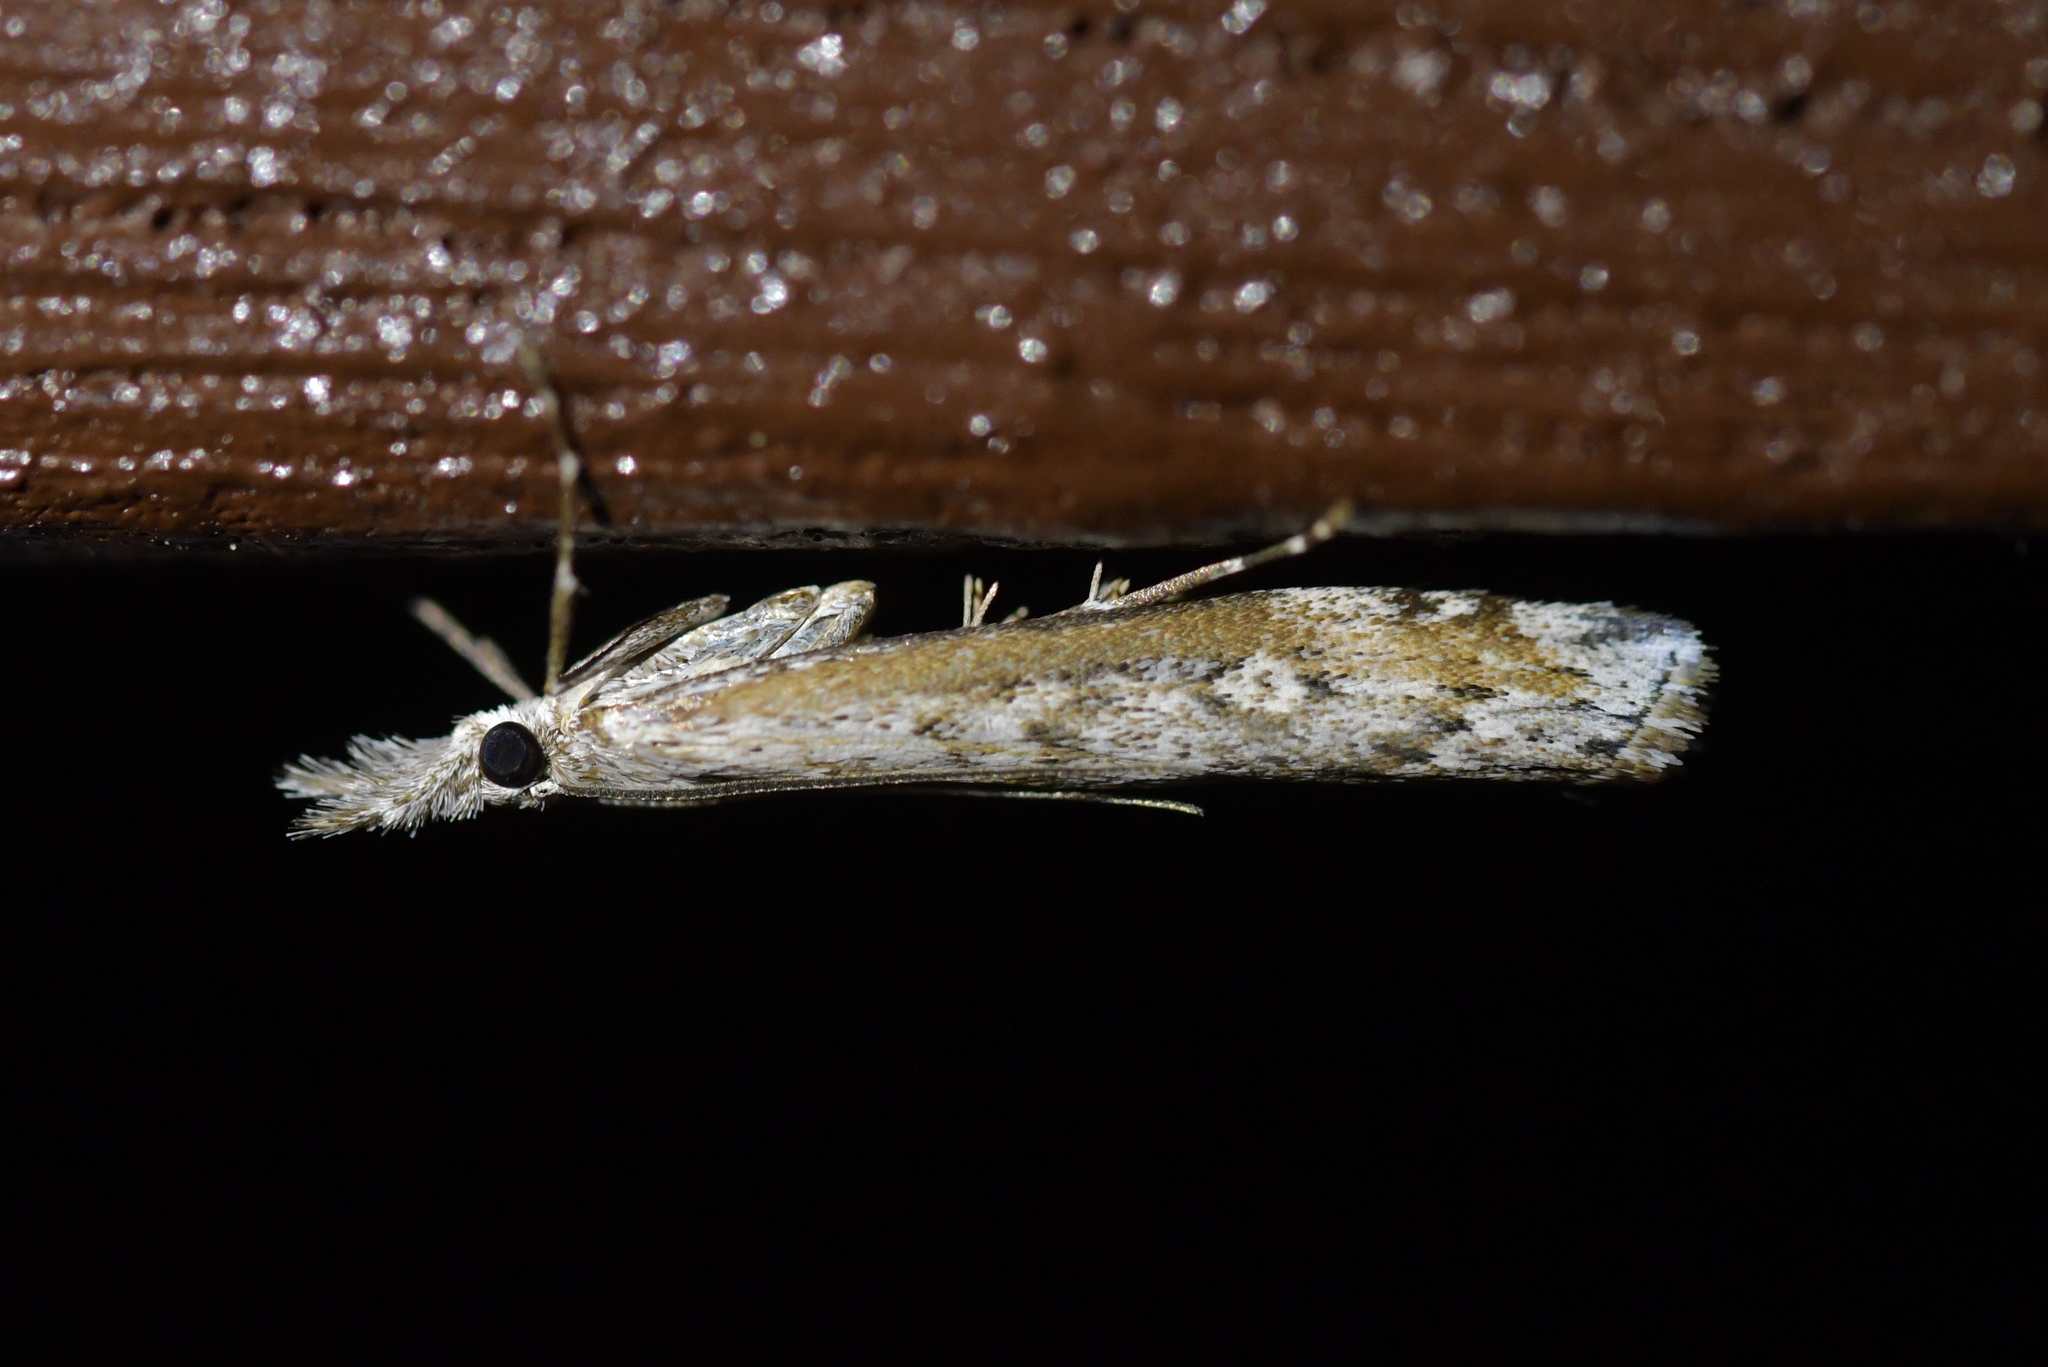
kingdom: Animalia
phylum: Arthropoda
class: Insecta
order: Lepidoptera
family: Crambidae
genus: Orocrambus
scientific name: Orocrambus cyclopicus
